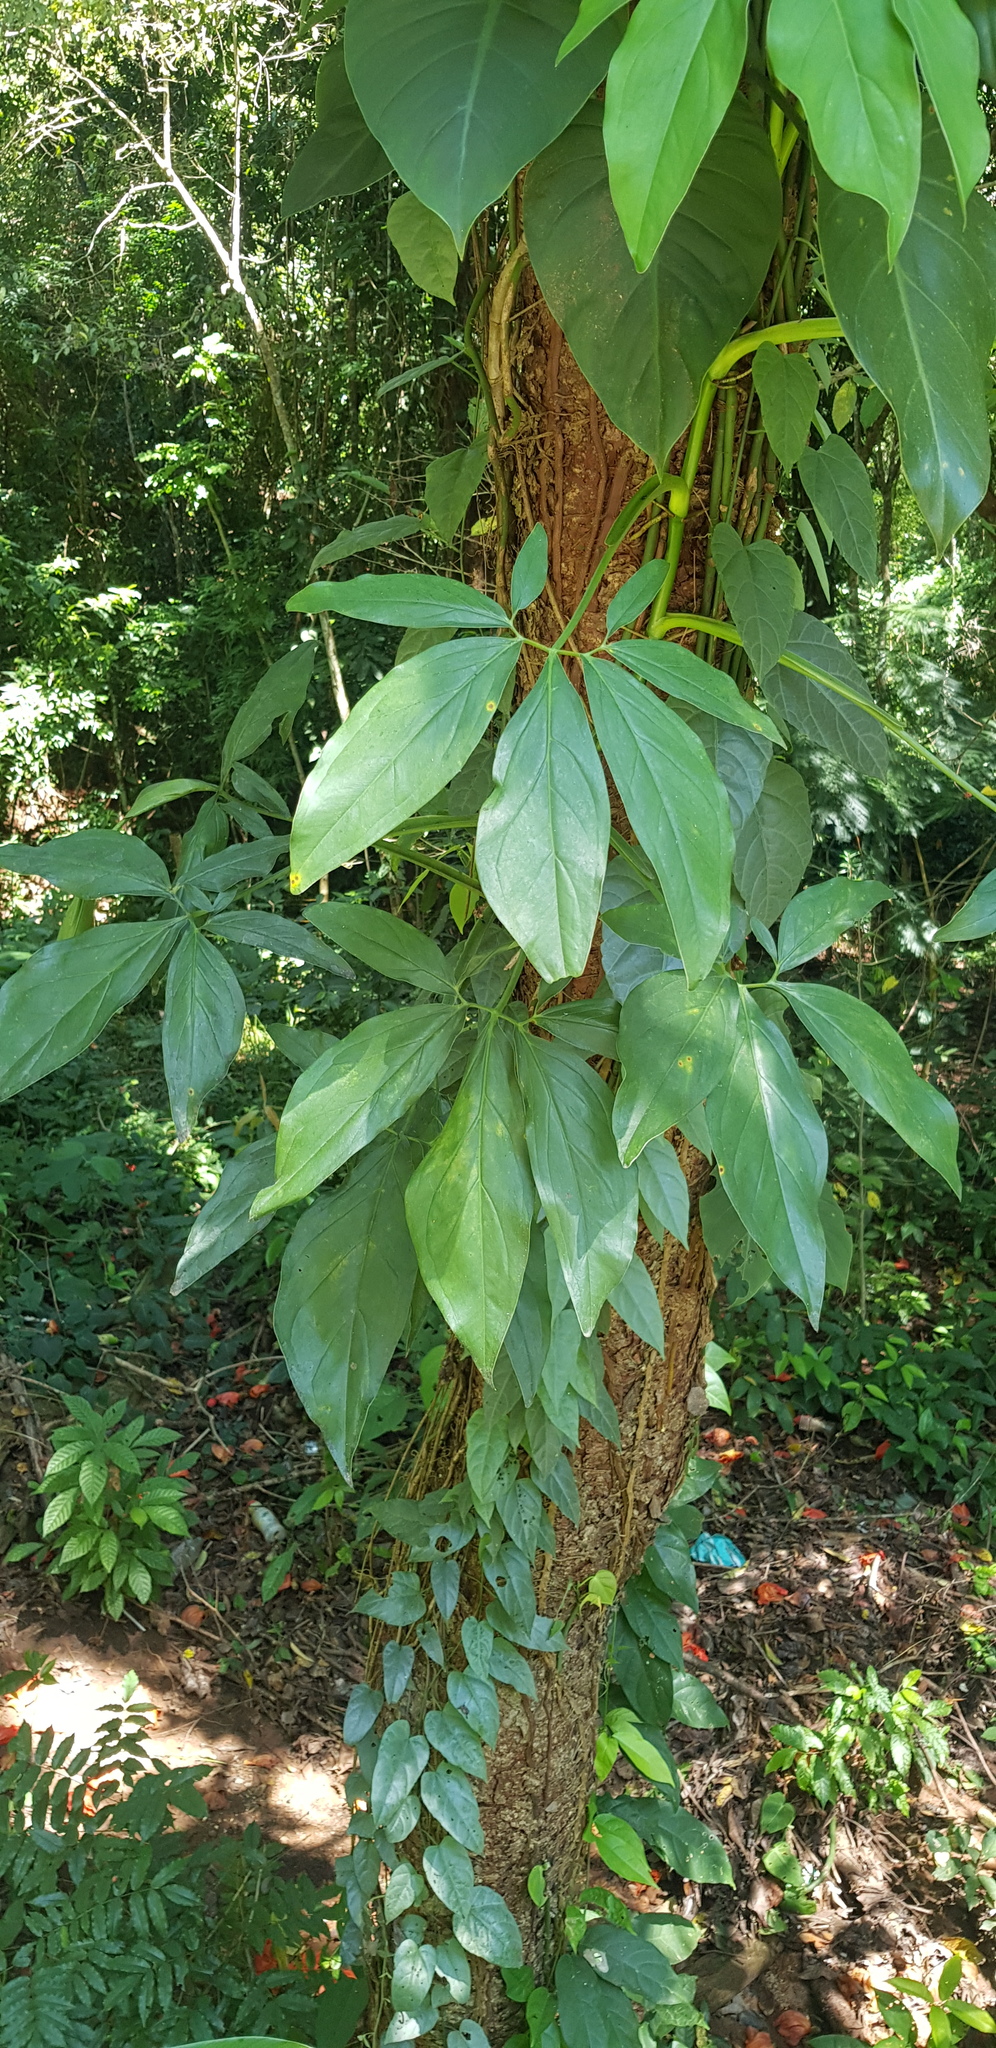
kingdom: Plantae
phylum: Tracheophyta
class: Liliopsida
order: Alismatales
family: Araceae
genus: Syngonium
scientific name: Syngonium podophyllum
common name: American evergreen
